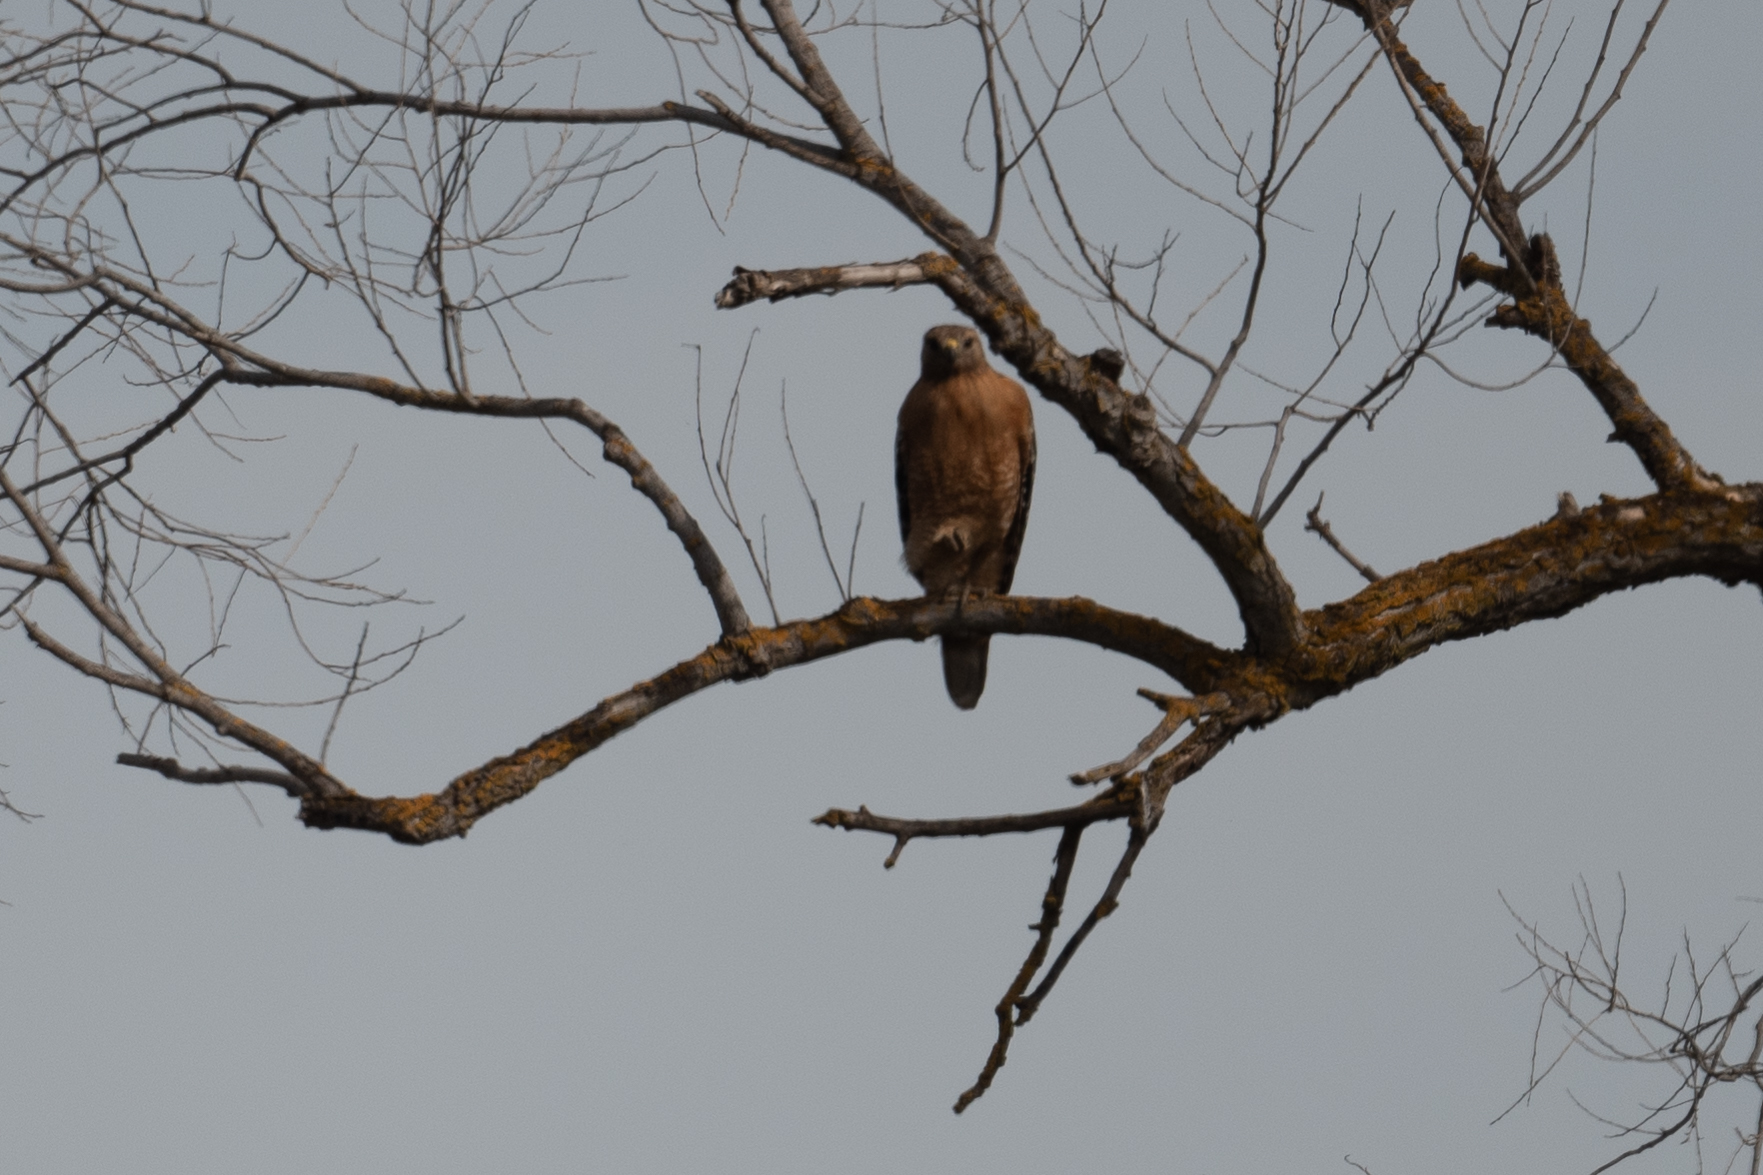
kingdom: Animalia
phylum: Chordata
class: Aves
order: Accipitriformes
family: Accipitridae
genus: Buteo
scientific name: Buteo lineatus
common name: Red-shouldered hawk
